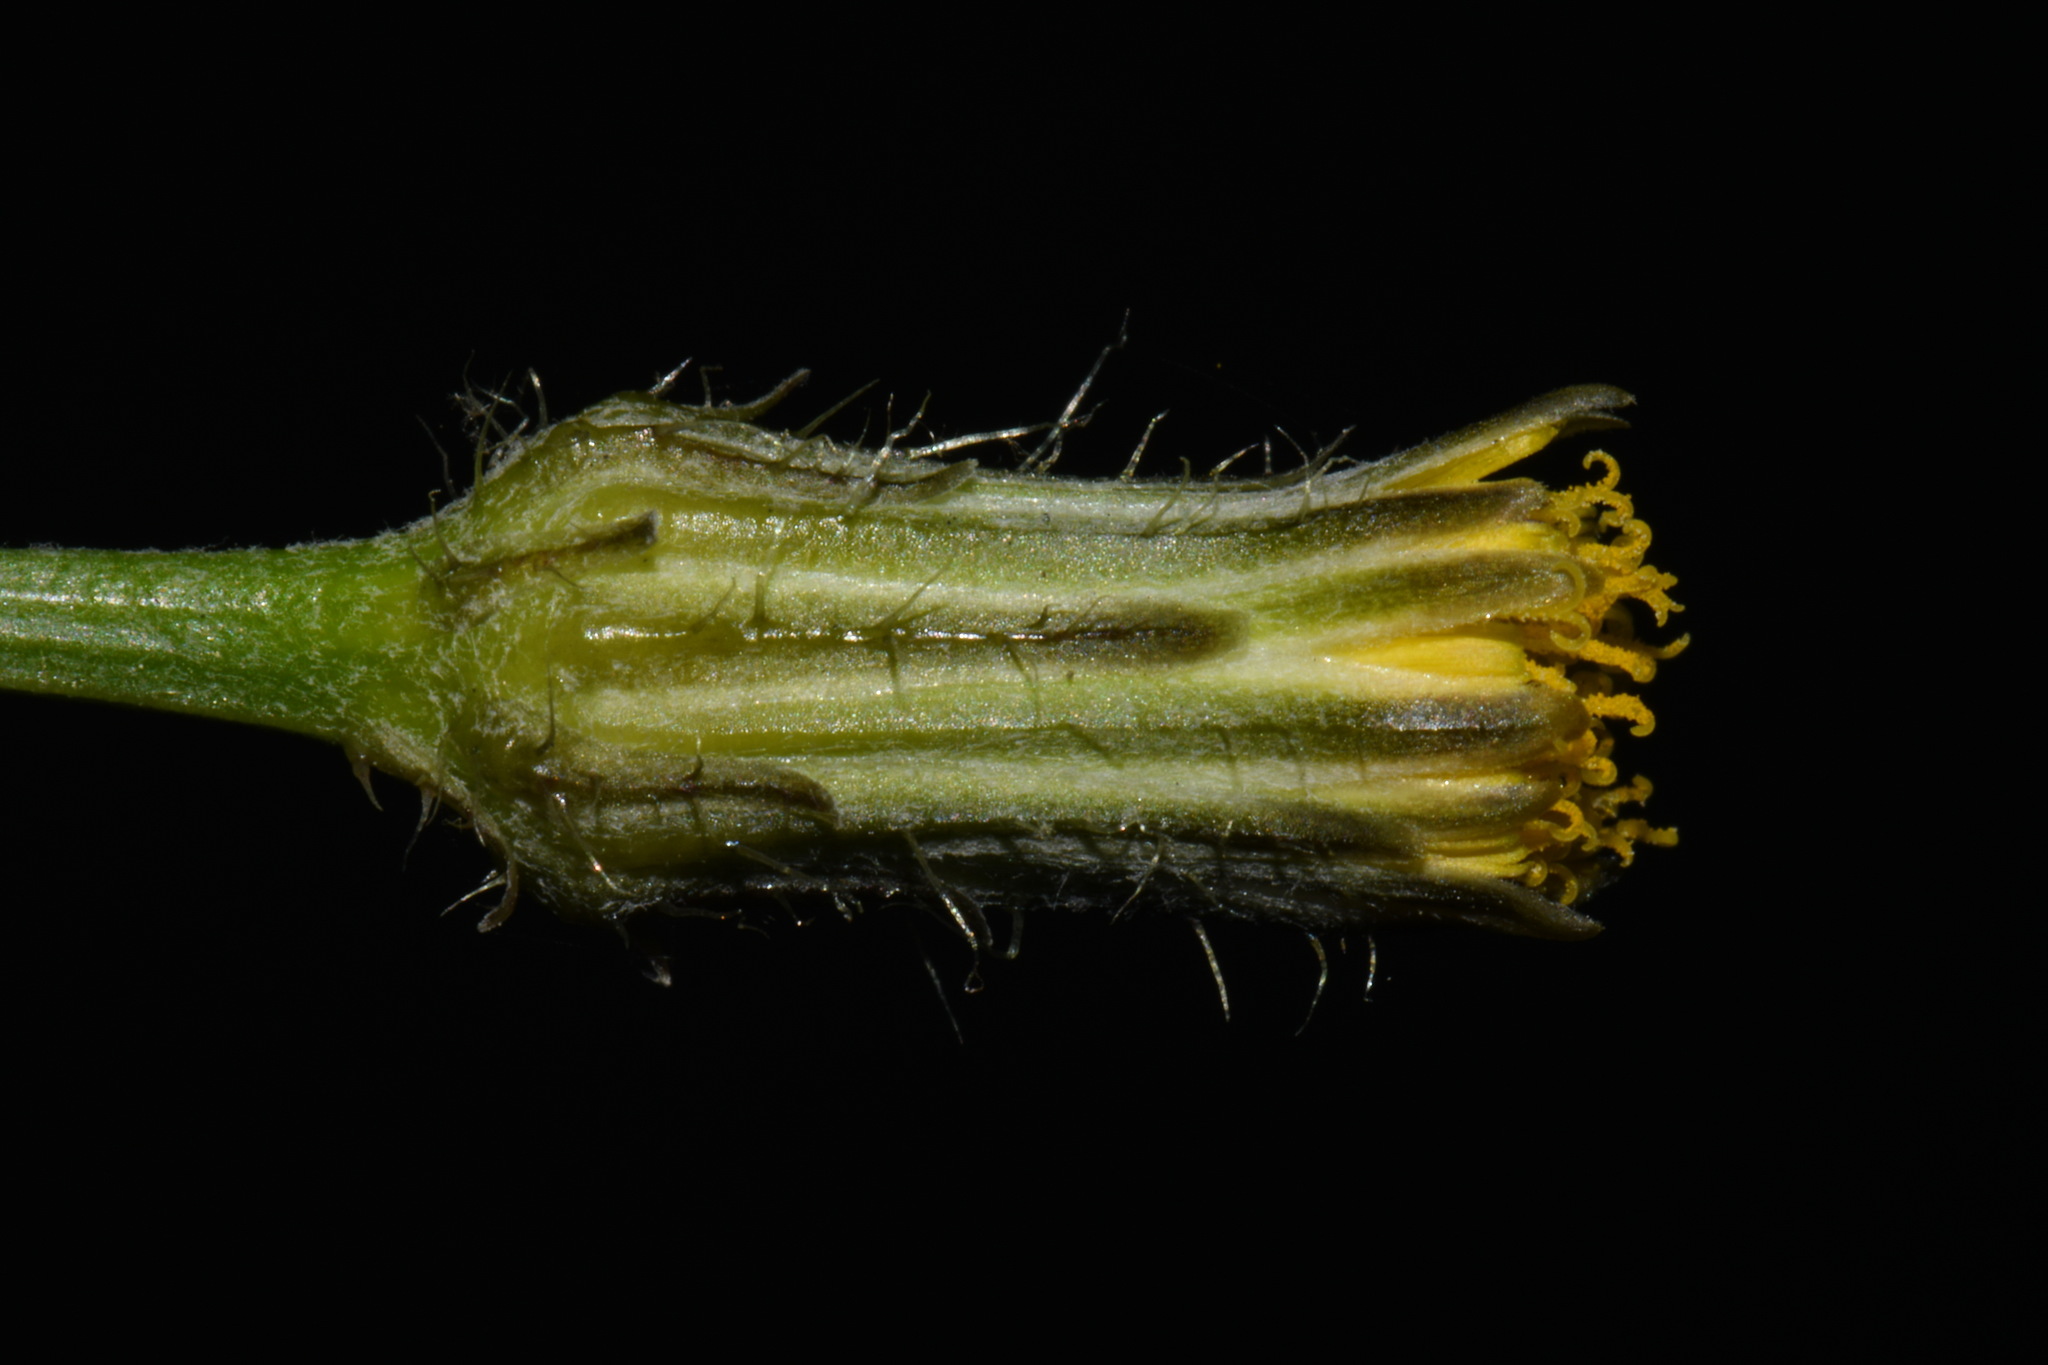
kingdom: Plantae
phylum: Tracheophyta
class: Magnoliopsida
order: Asterales
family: Asteraceae
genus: Hypochaeris
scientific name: Hypochaeris chillensis
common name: Brazilian cat's ear
